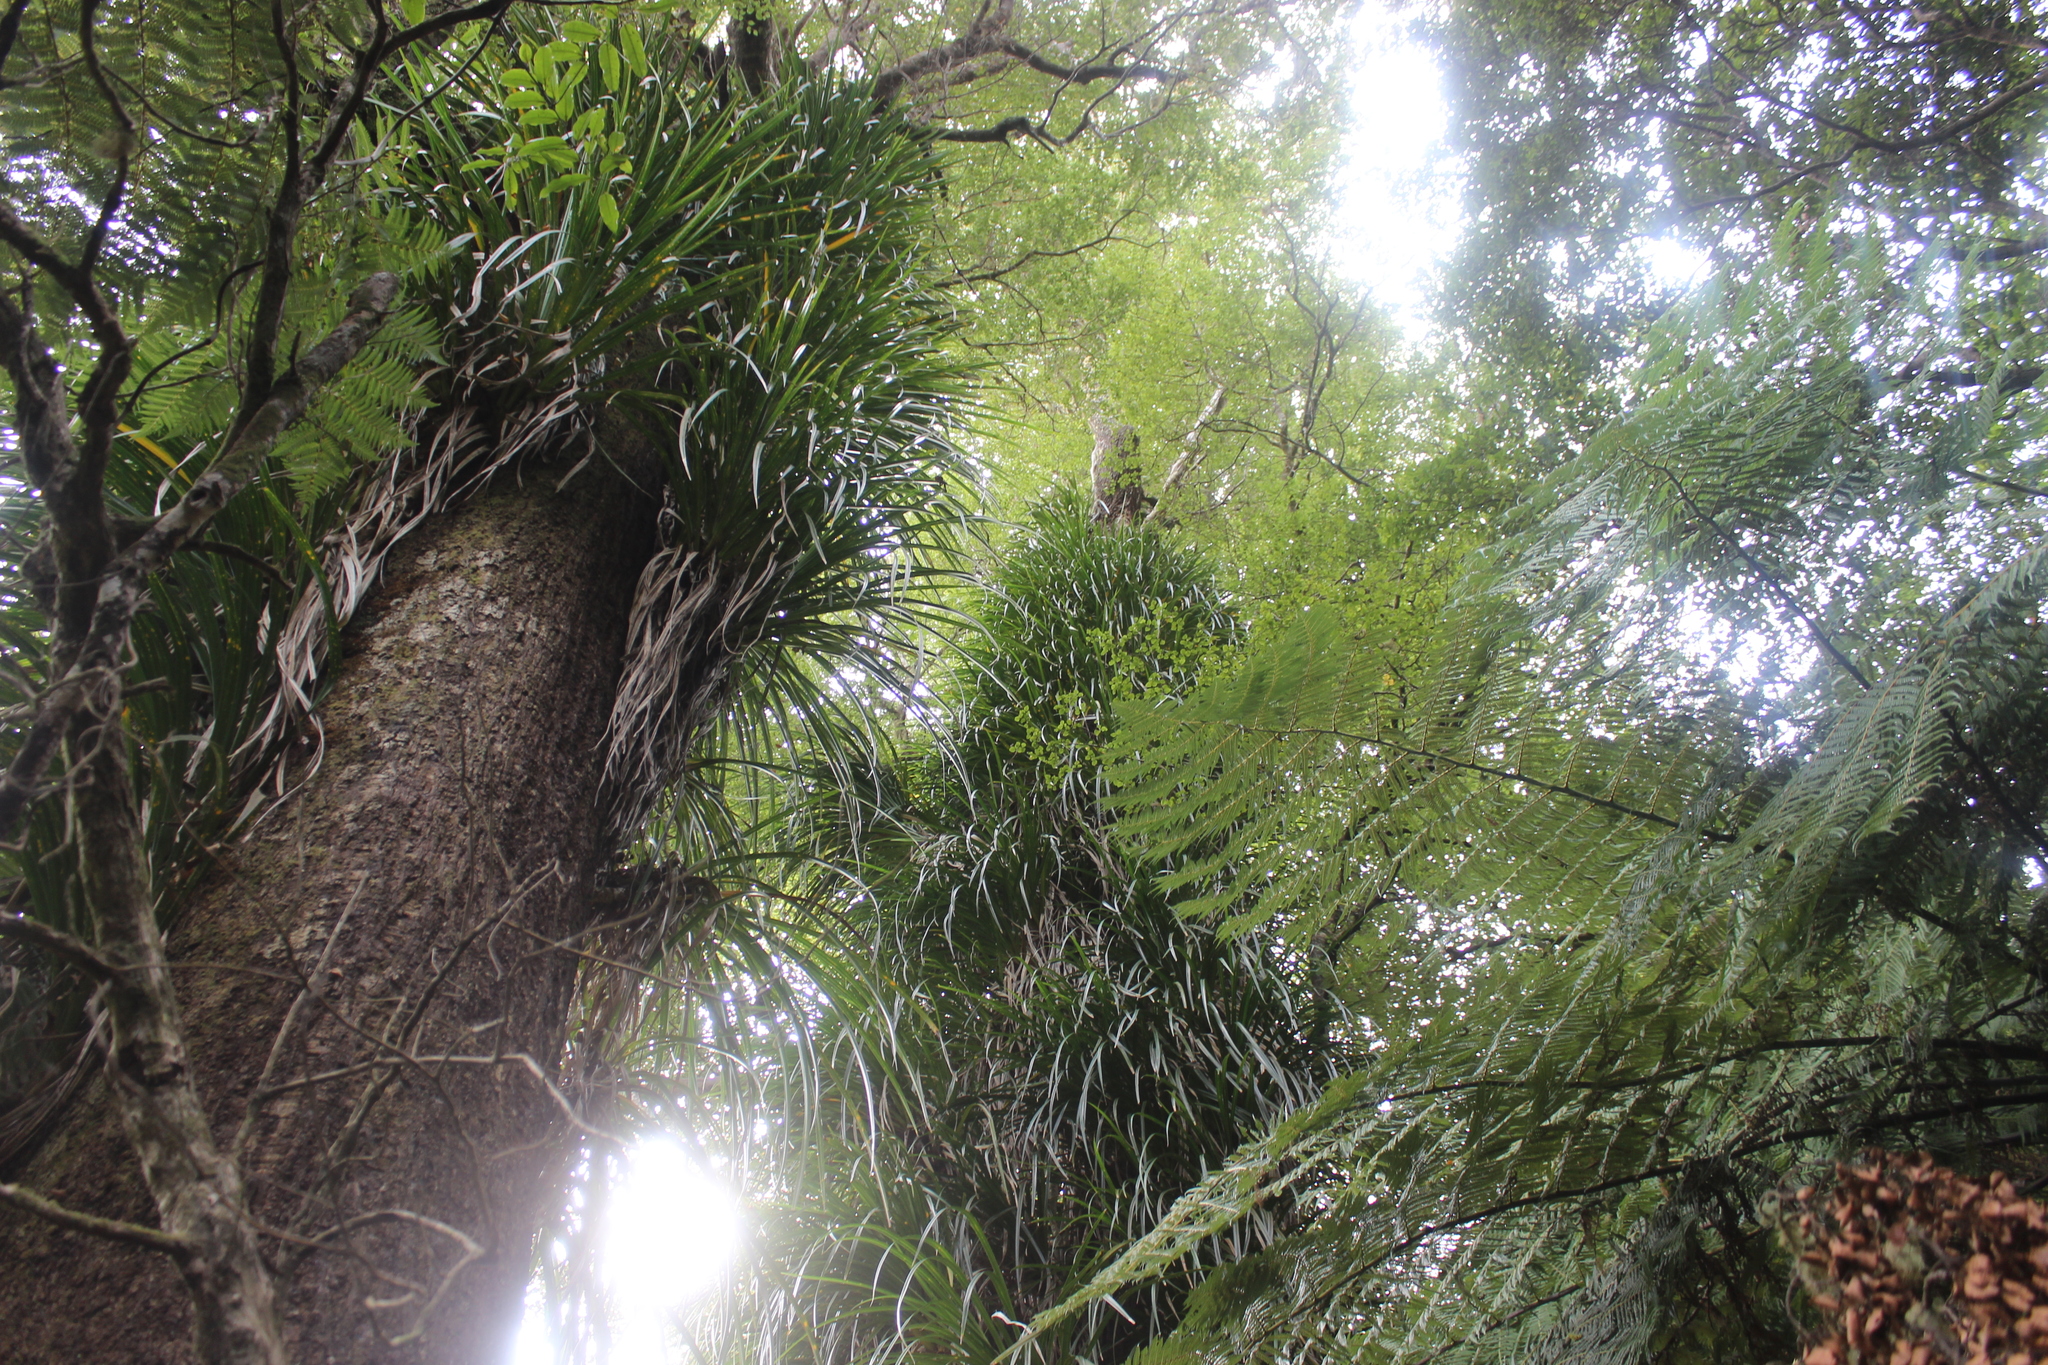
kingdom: Plantae
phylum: Tracheophyta
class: Liliopsida
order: Pandanales
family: Pandanaceae
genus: Freycinetia
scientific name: Freycinetia banksii
